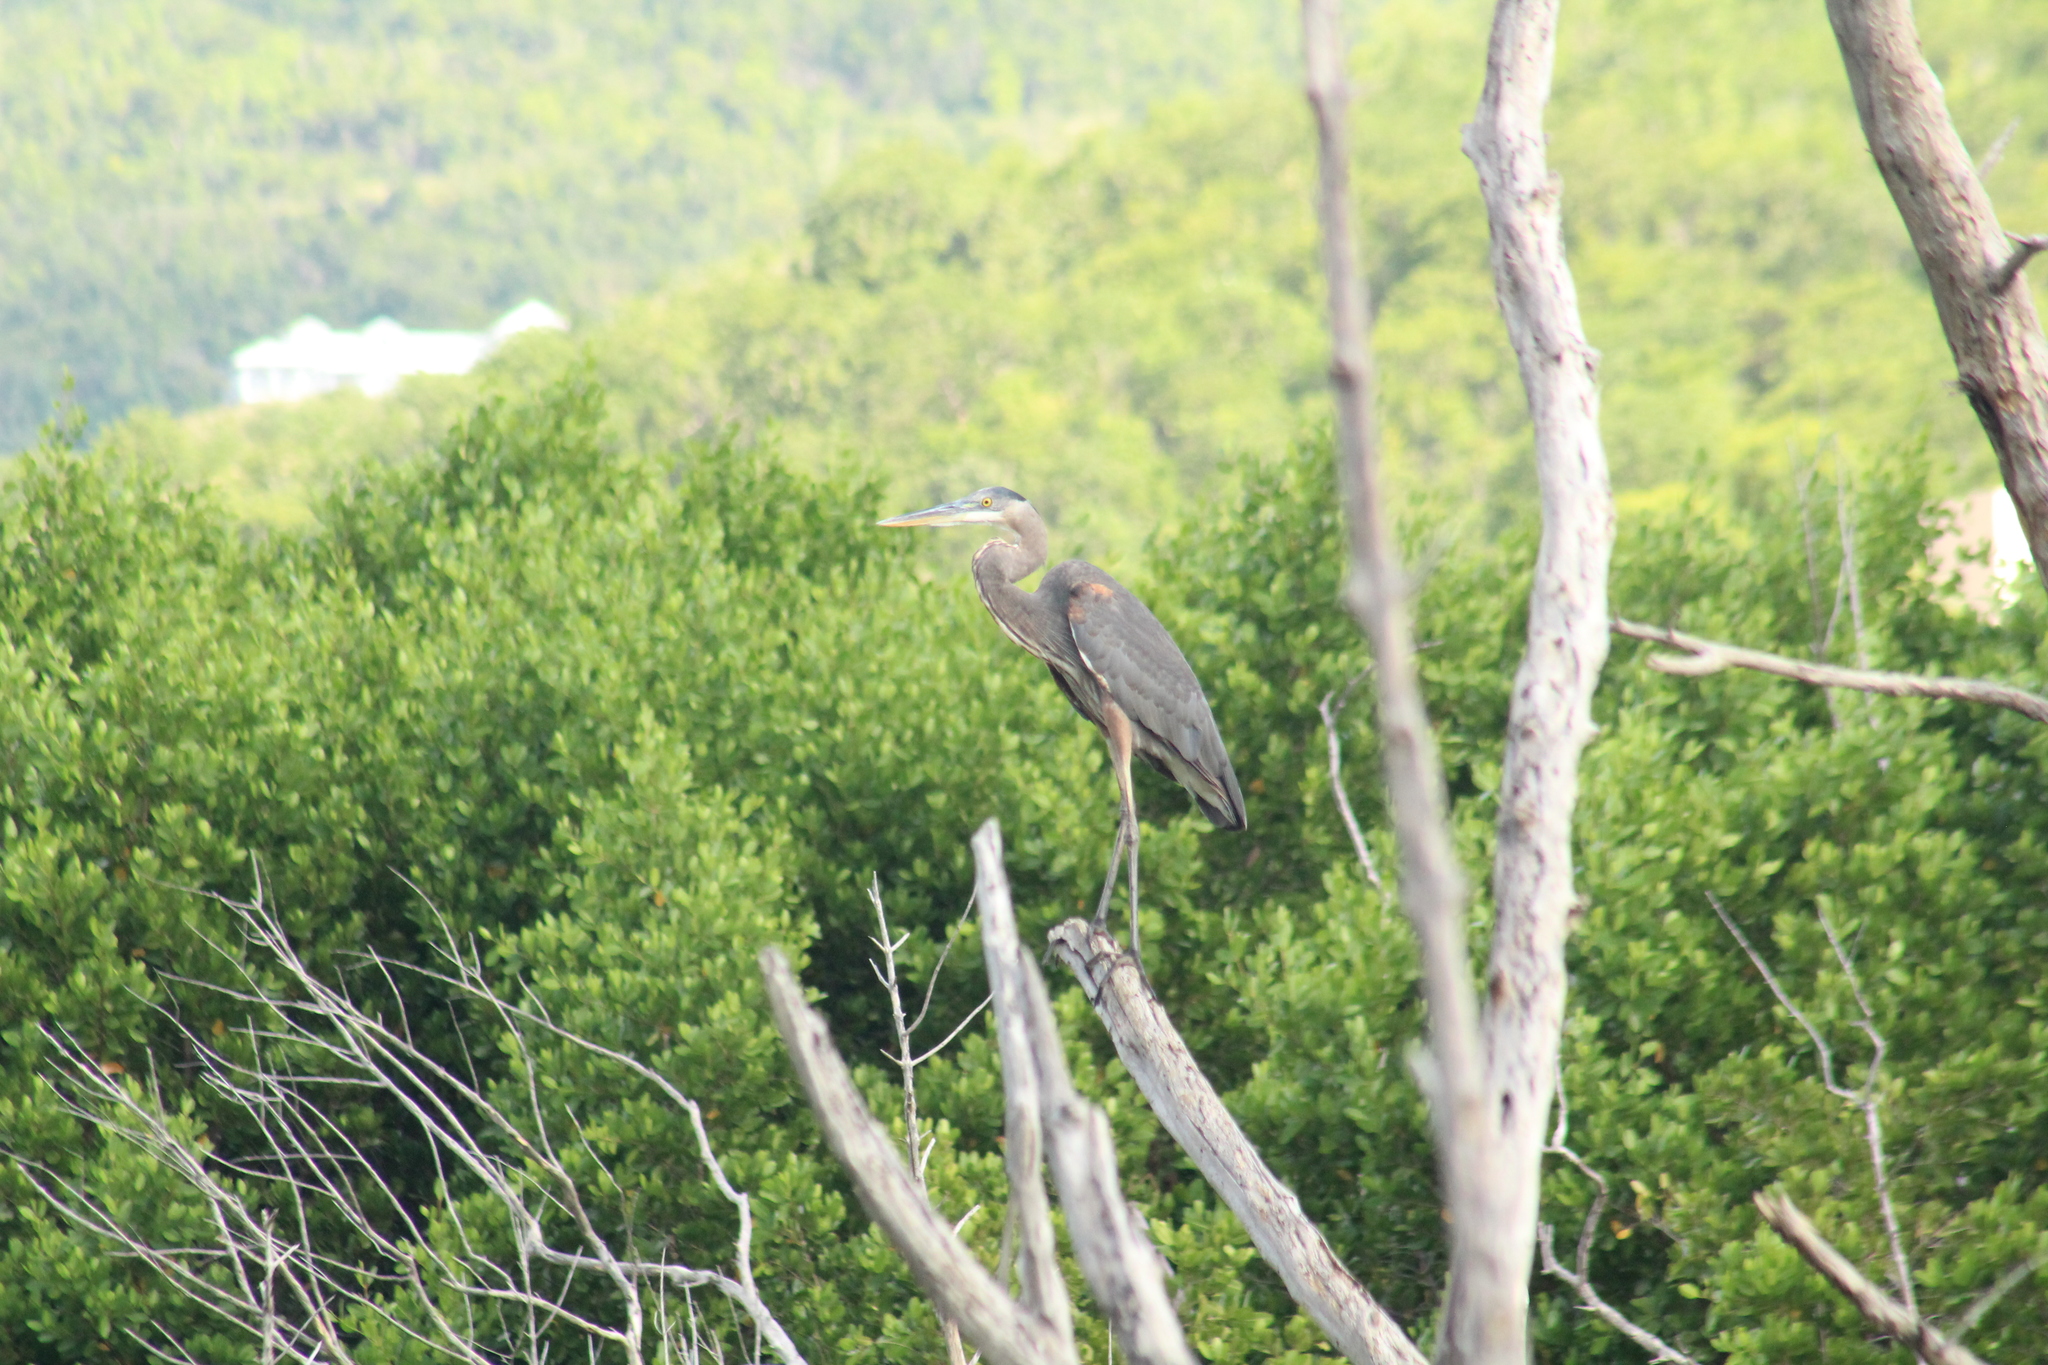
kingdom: Animalia
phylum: Chordata
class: Aves
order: Pelecaniformes
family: Ardeidae
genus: Ardea
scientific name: Ardea herodias
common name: Great blue heron
